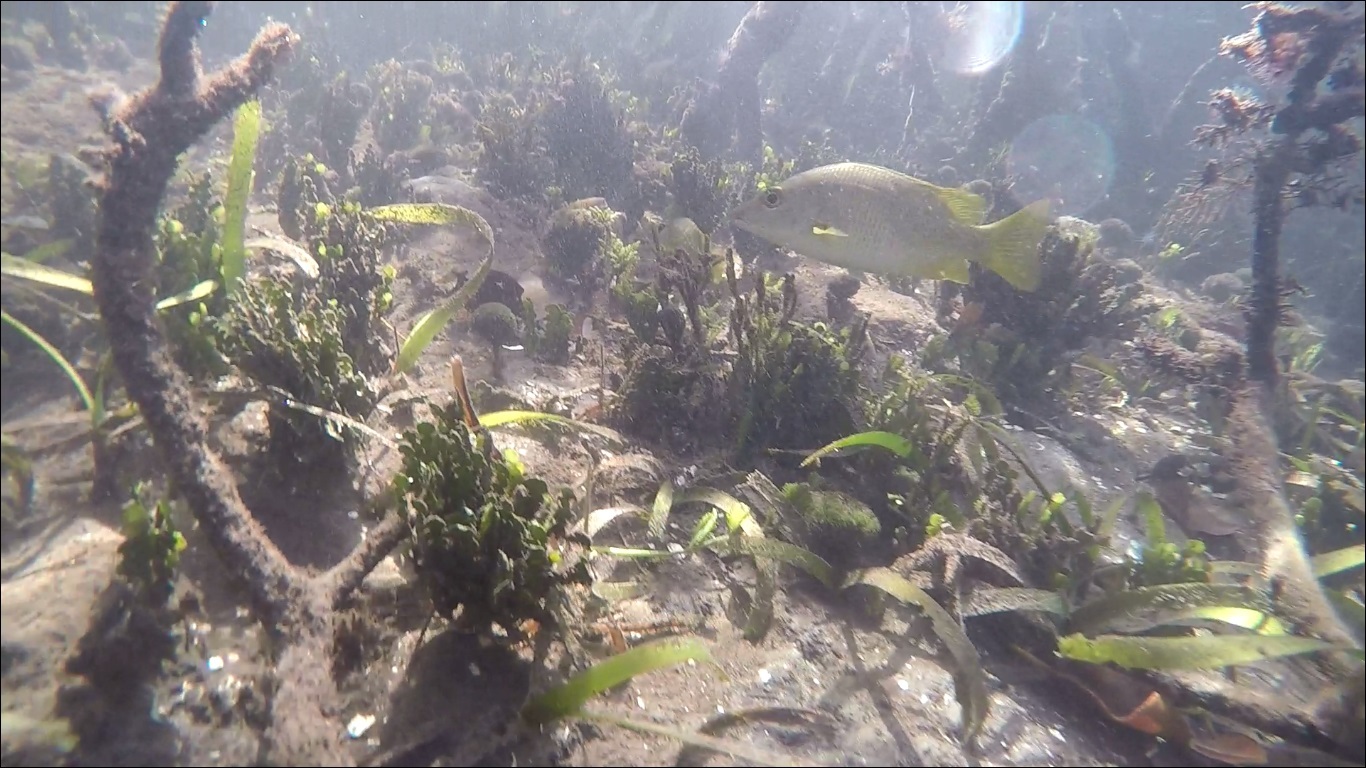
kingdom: Animalia
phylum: Chordata
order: Perciformes
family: Lutjanidae
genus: Lutjanus
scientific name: Lutjanus apodus
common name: Schoolmaster
